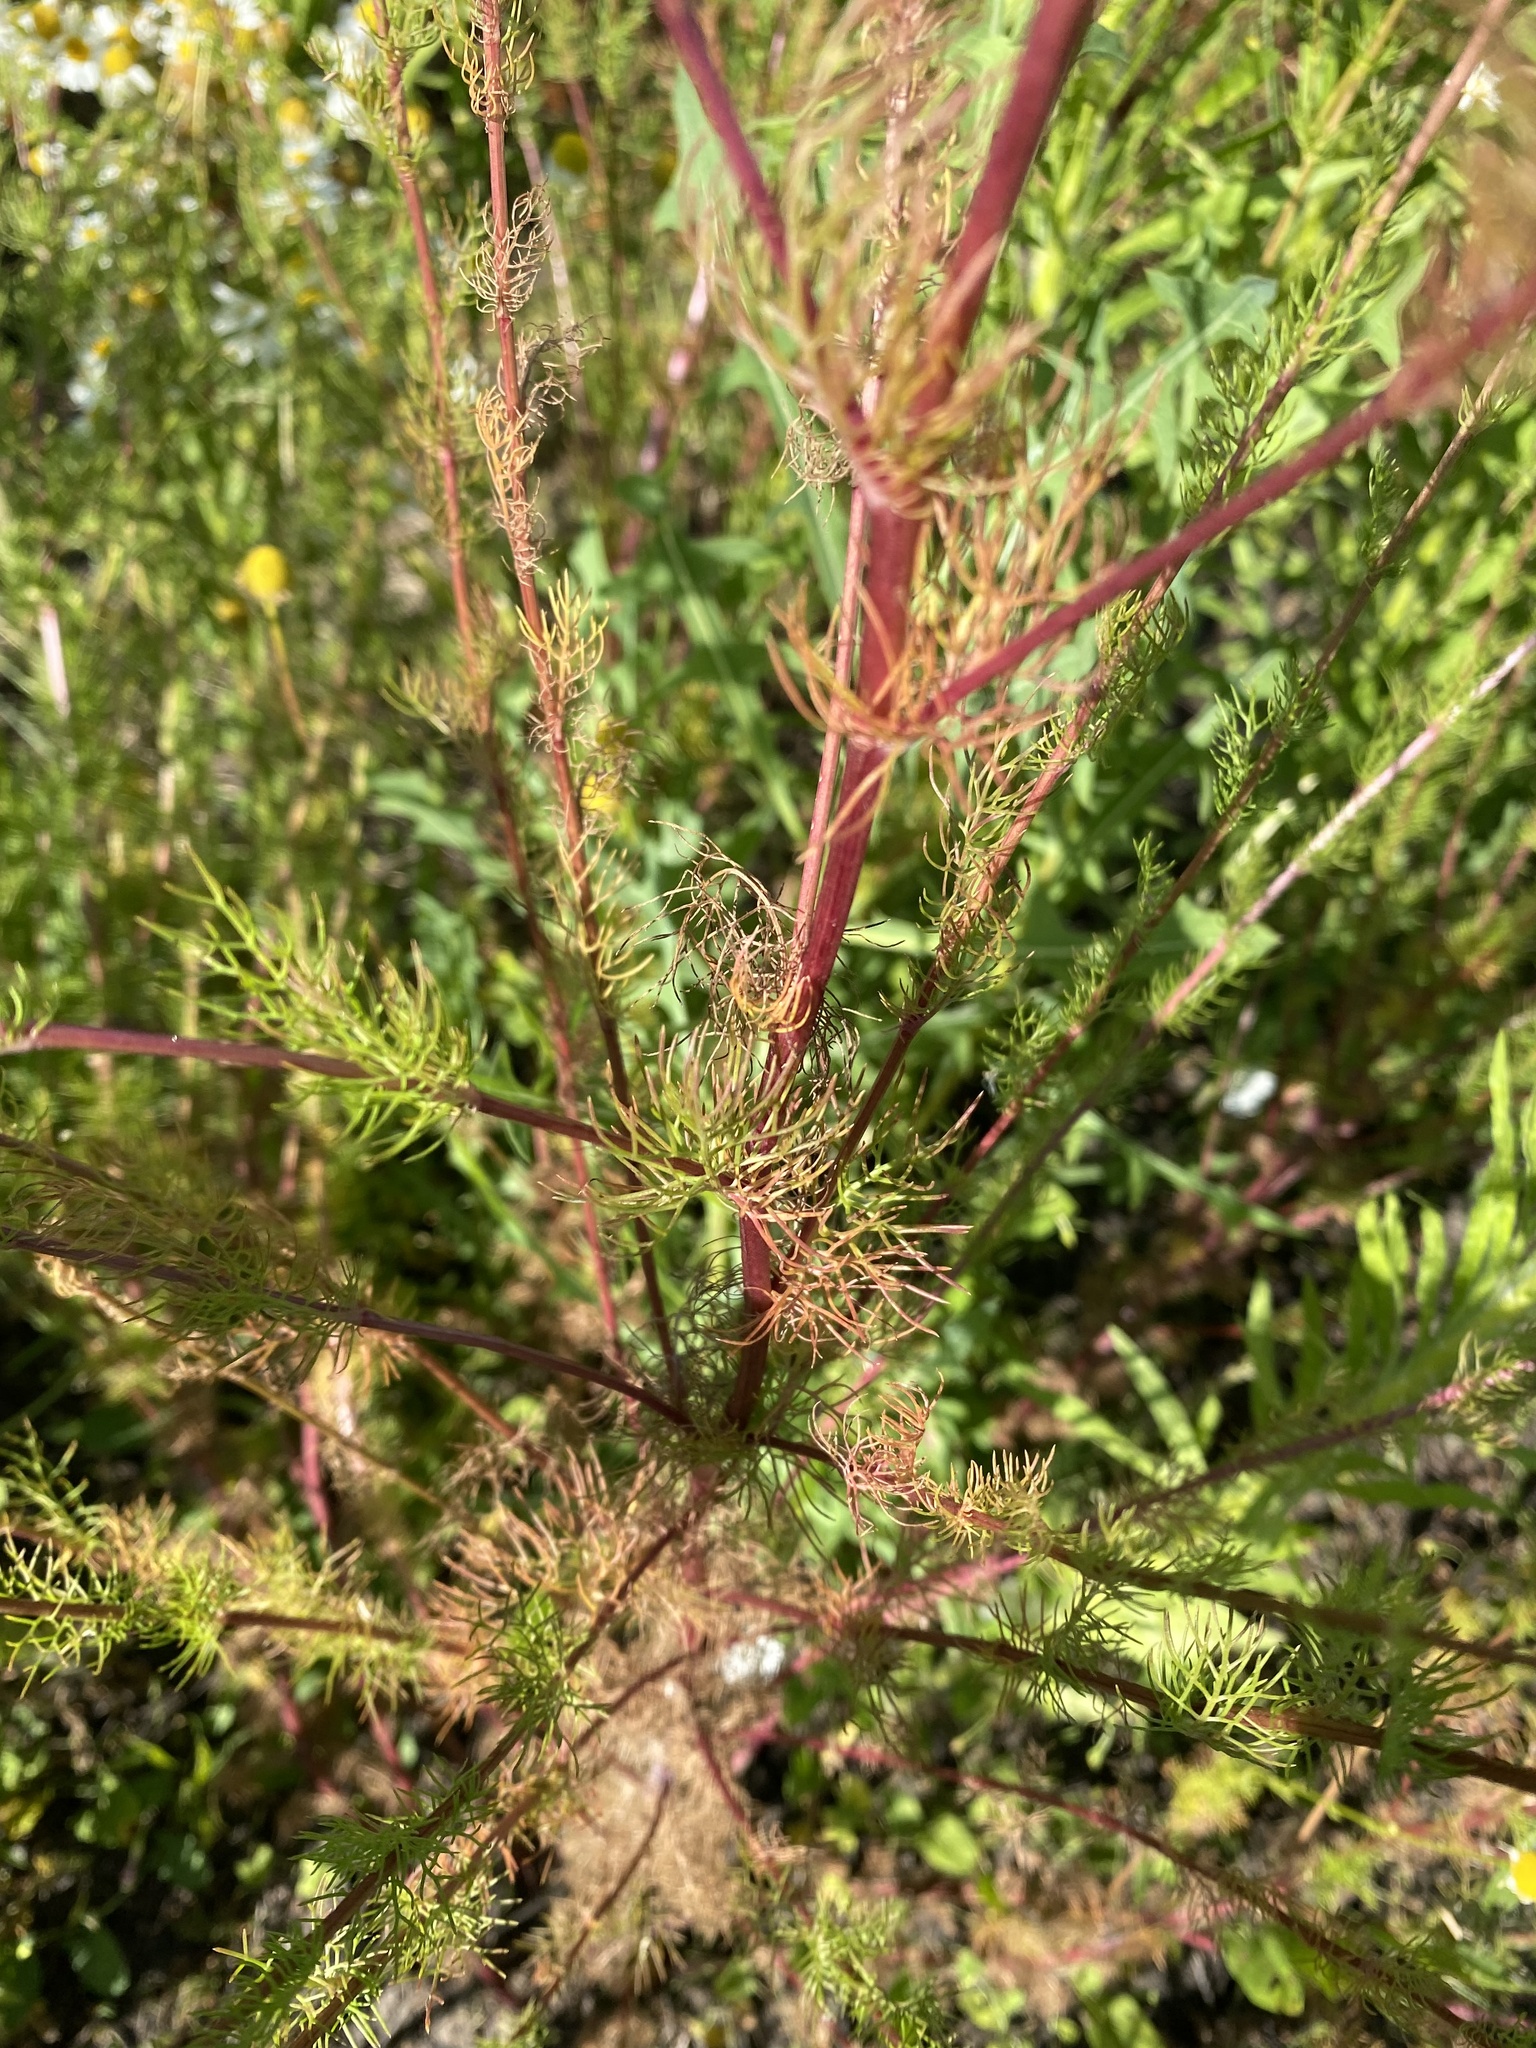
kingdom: Plantae
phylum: Tracheophyta
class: Magnoliopsida
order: Asterales
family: Asteraceae
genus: Tripleurospermum
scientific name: Tripleurospermum inodorum
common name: Scentless mayweed
